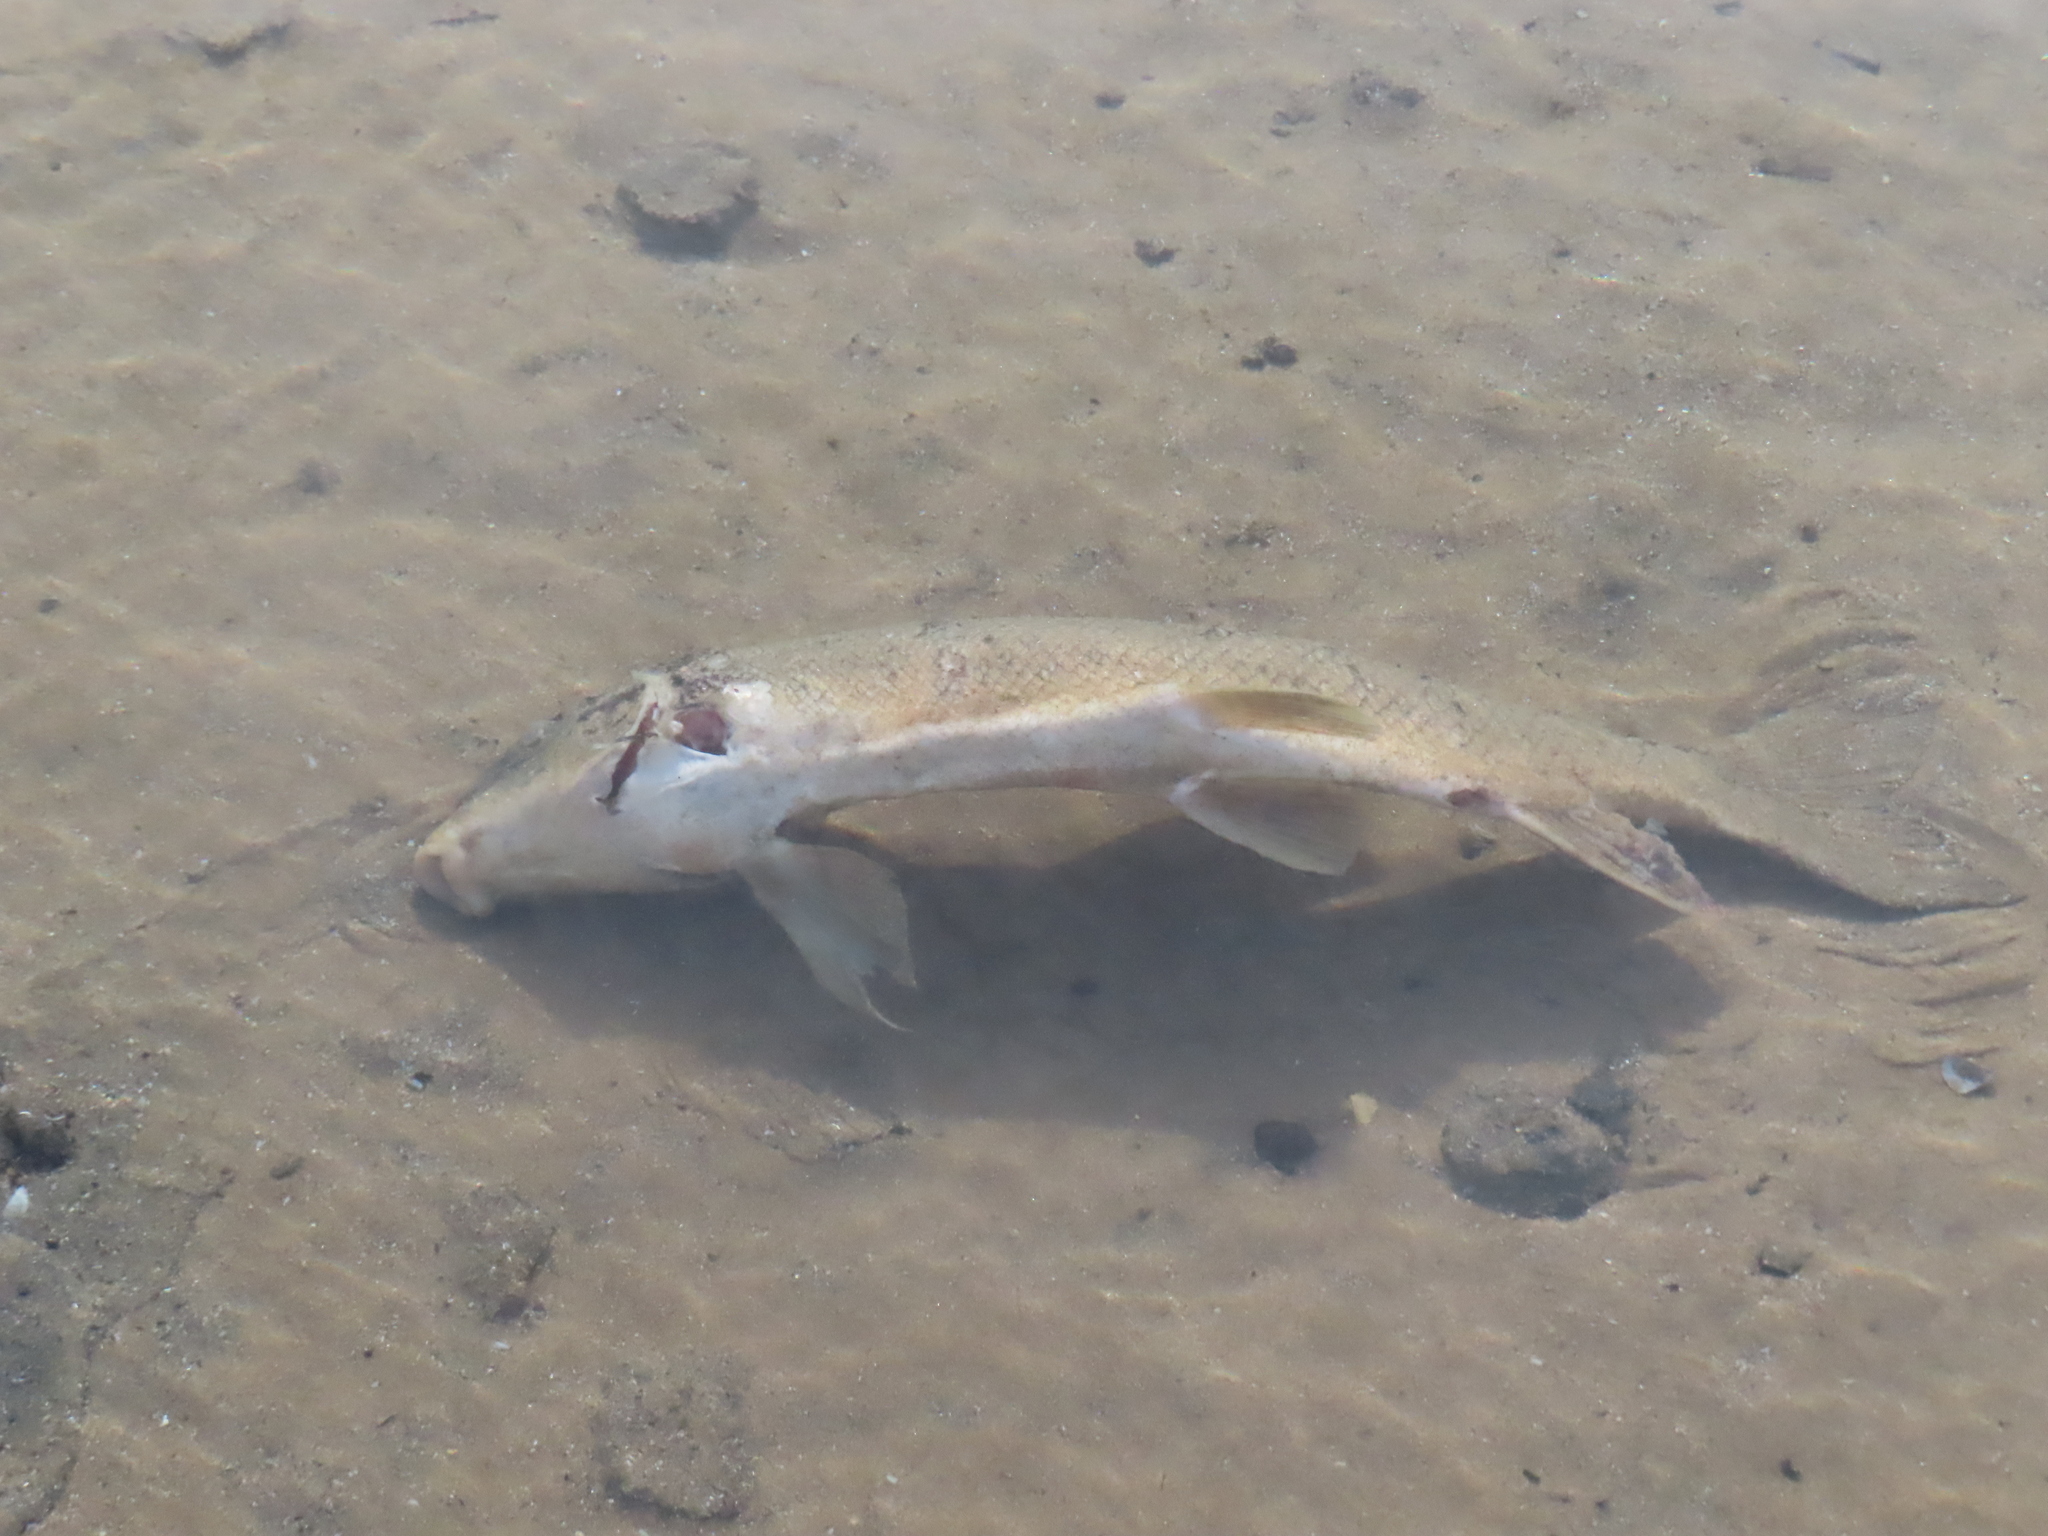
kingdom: Animalia
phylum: Chordata
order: Cypriniformes
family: Catostomidae
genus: Catostomus
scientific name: Catostomus commersonii
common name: White sucker
